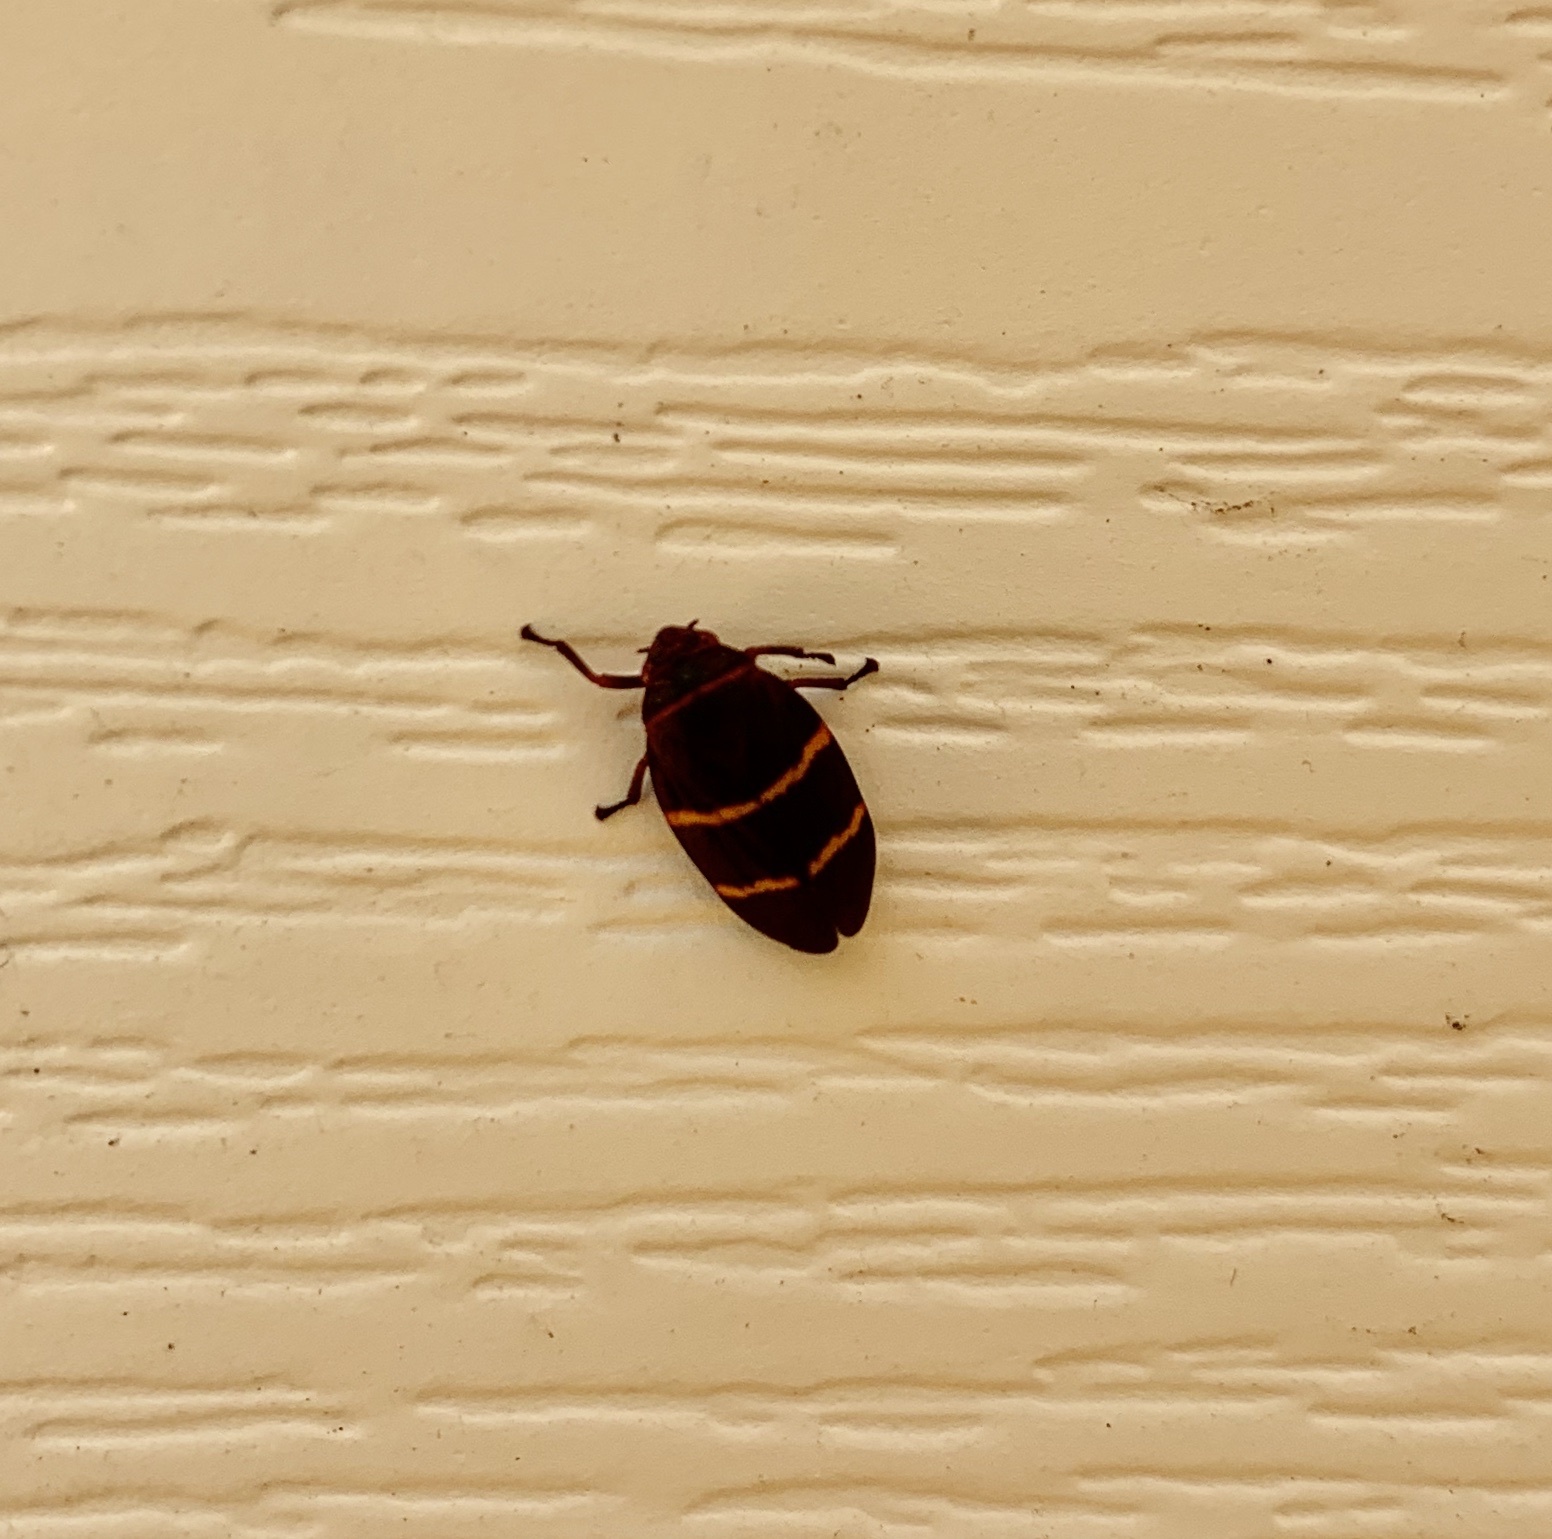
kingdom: Animalia
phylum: Arthropoda
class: Insecta
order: Hemiptera
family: Cercopidae
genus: Prosapia
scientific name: Prosapia bicincta
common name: Twolined spittlebug
